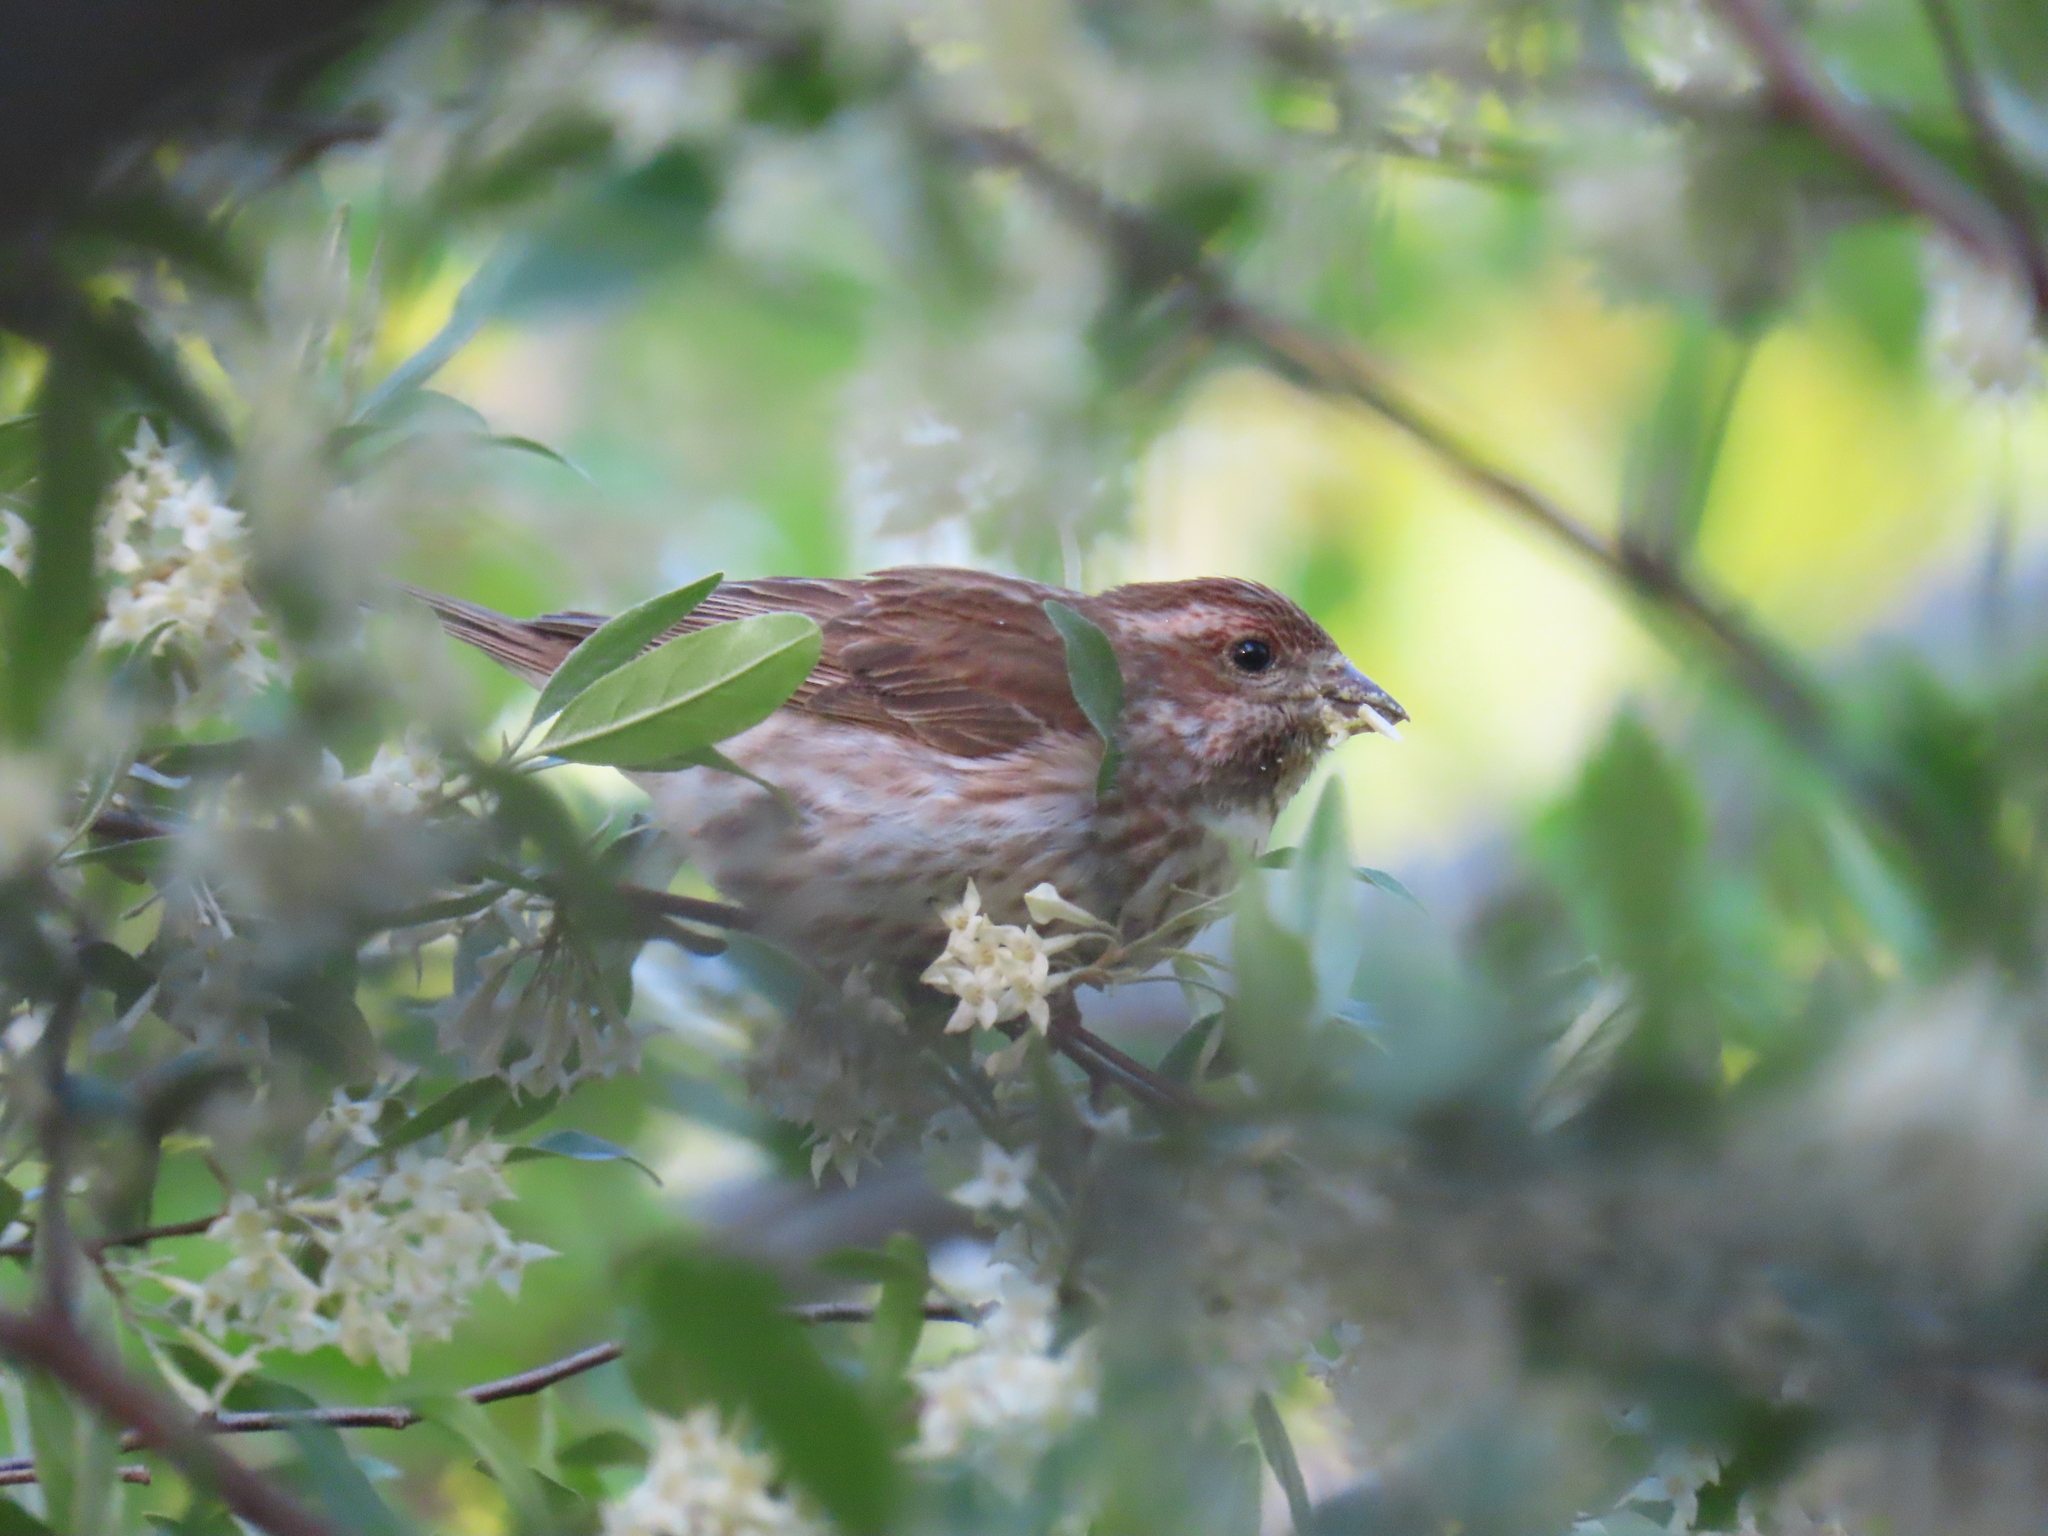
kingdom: Animalia
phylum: Chordata
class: Aves
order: Passeriformes
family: Fringillidae
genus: Haemorhous
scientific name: Haemorhous purpureus
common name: Purple finch
